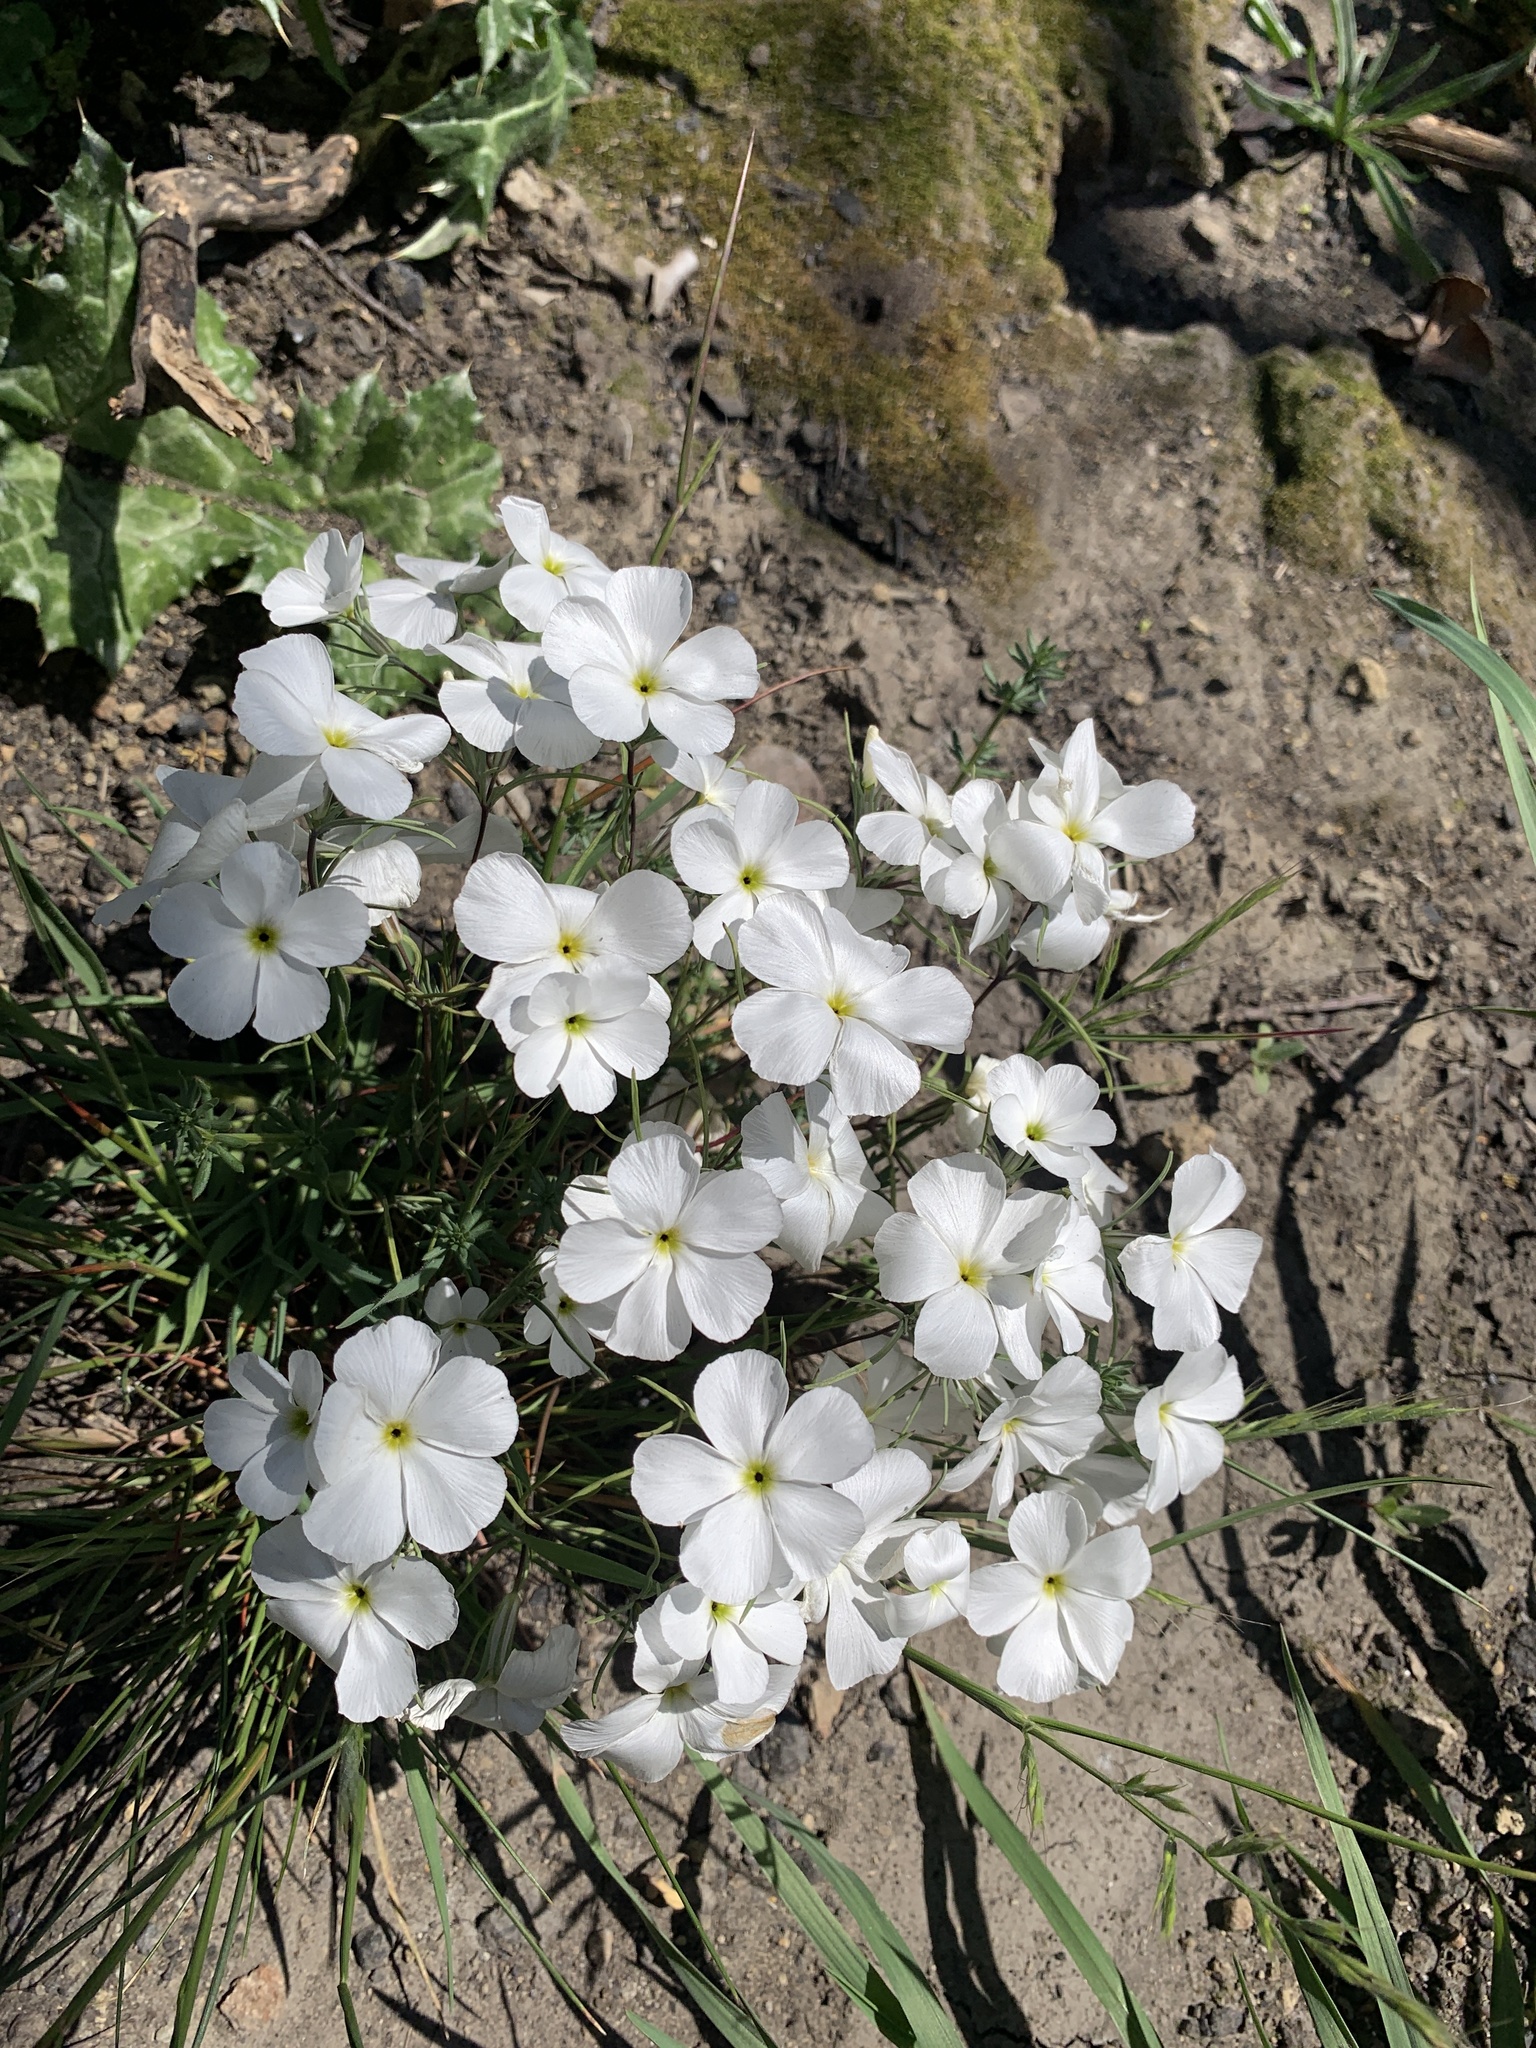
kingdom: Plantae
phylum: Tracheophyta
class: Magnoliopsida
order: Ericales
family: Polemoniaceae
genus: Linanthus
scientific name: Linanthus dichotomus
